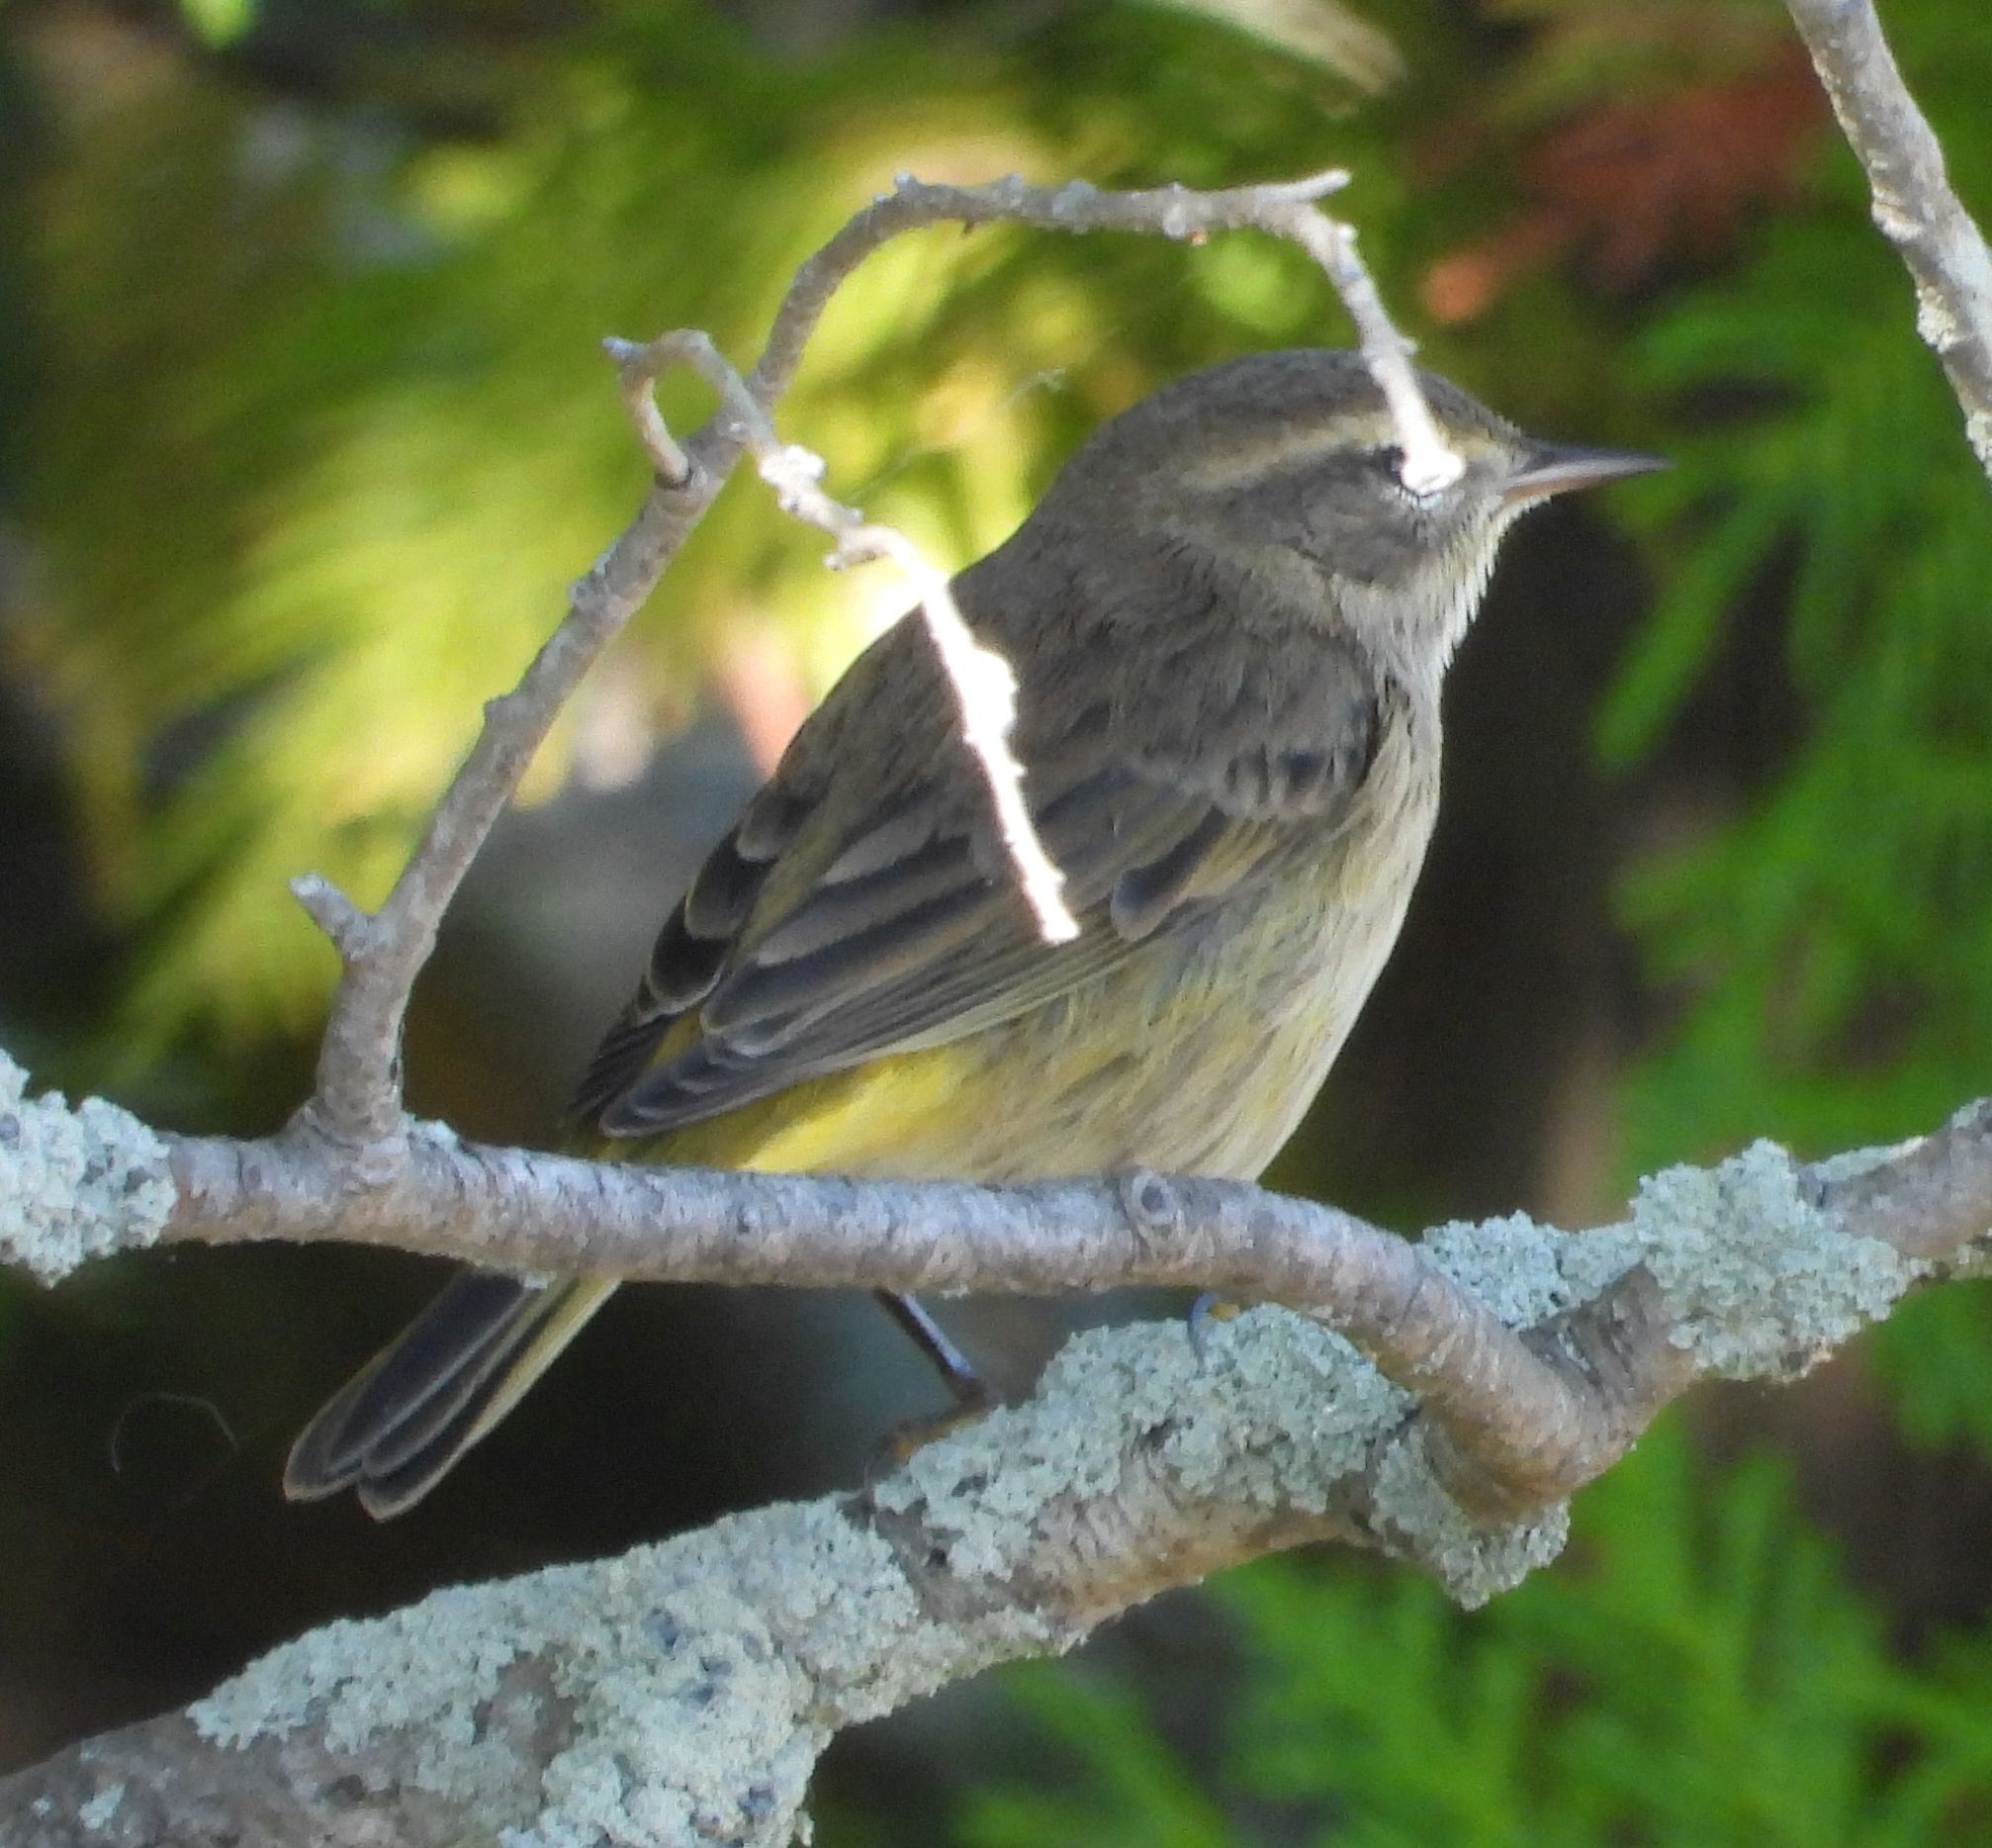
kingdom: Animalia
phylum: Chordata
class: Aves
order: Passeriformes
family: Parulidae
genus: Setophaga
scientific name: Setophaga palmarum
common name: Palm warbler
